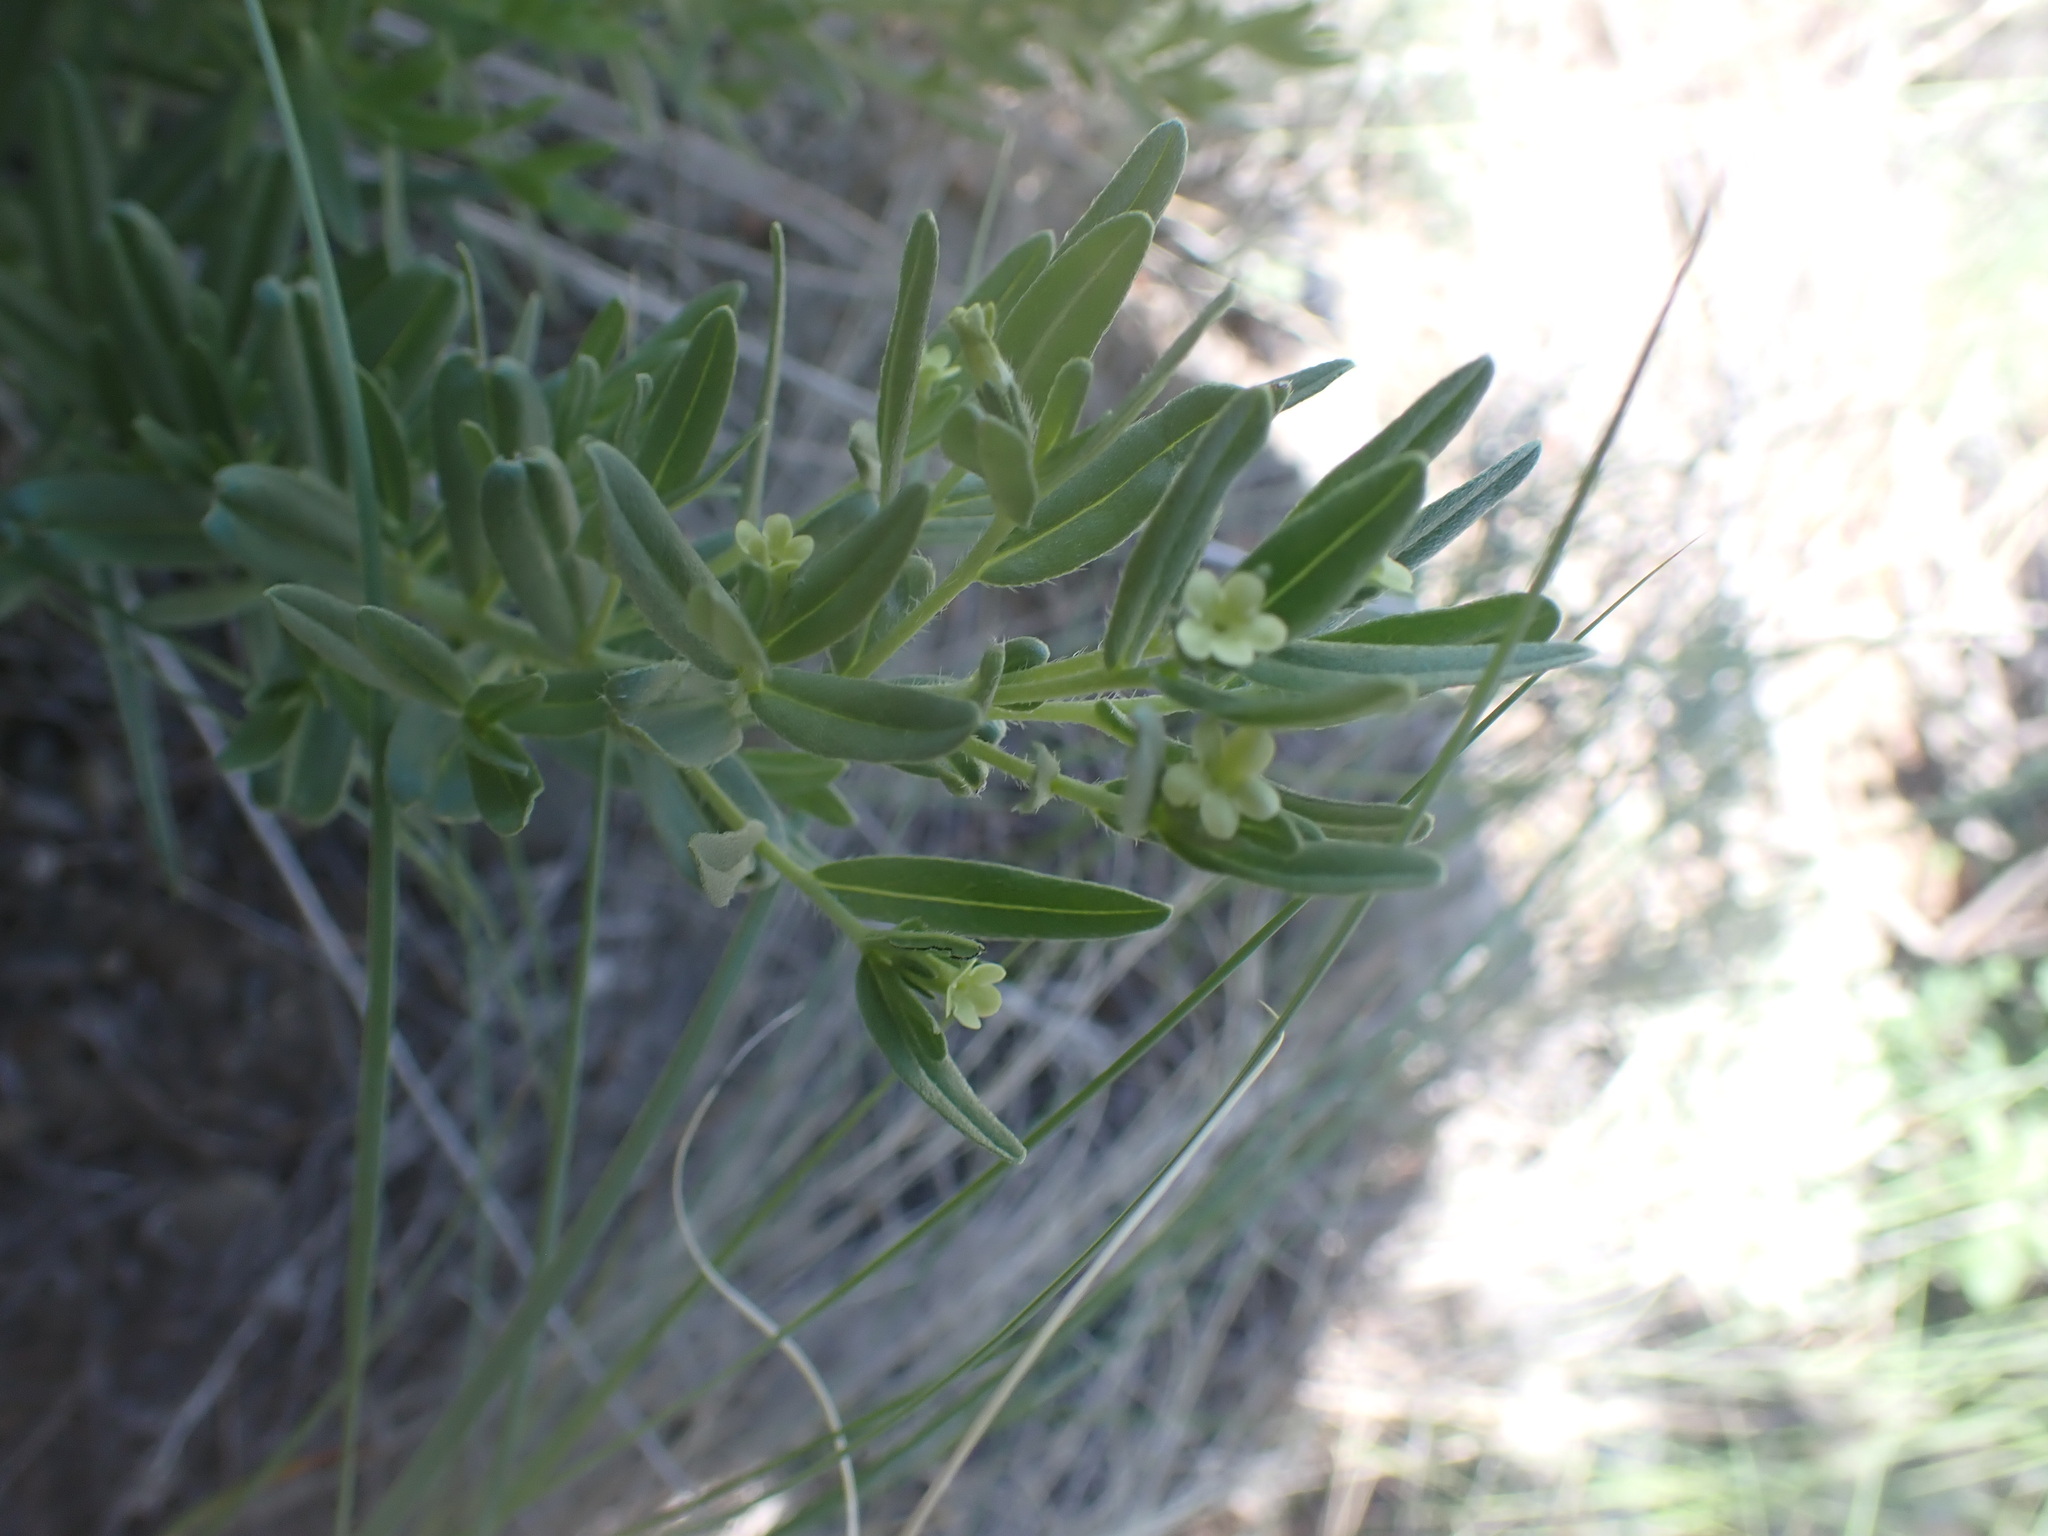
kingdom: Plantae
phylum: Tracheophyta
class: Magnoliopsida
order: Boraginales
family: Boraginaceae
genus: Lithospermum
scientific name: Lithospermum ruderale
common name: Western gromwell
